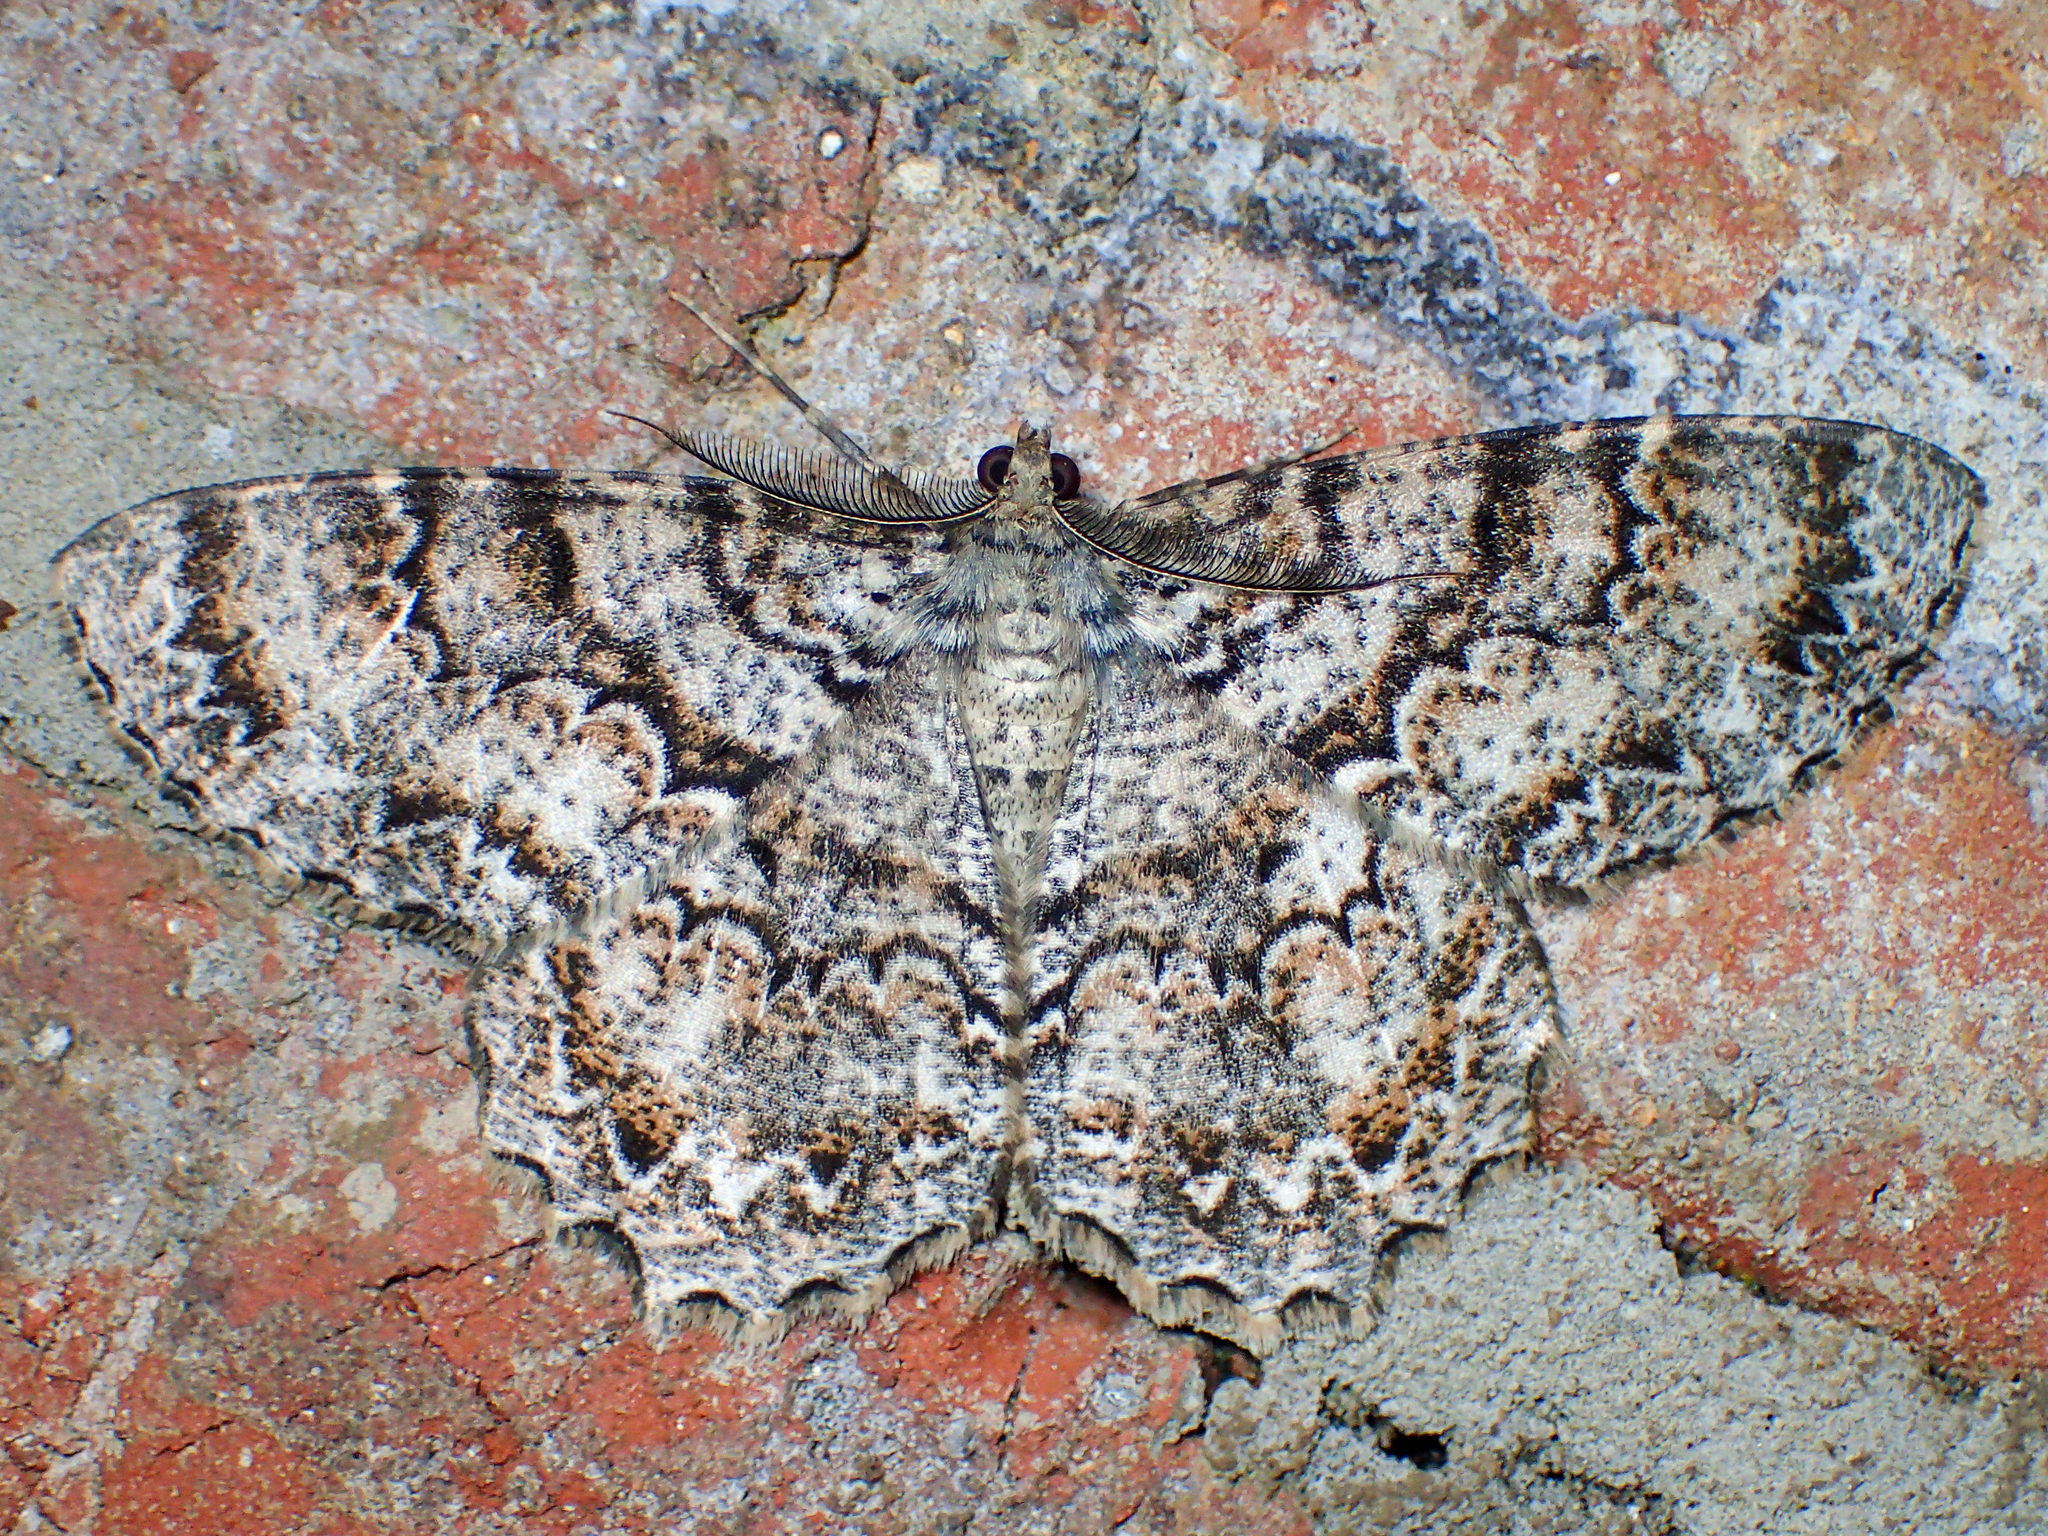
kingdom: Animalia
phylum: Arthropoda
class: Insecta
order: Lepidoptera
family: Geometridae
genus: Epimecis
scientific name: Epimecis hortaria
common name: Tulip-tree beauty
